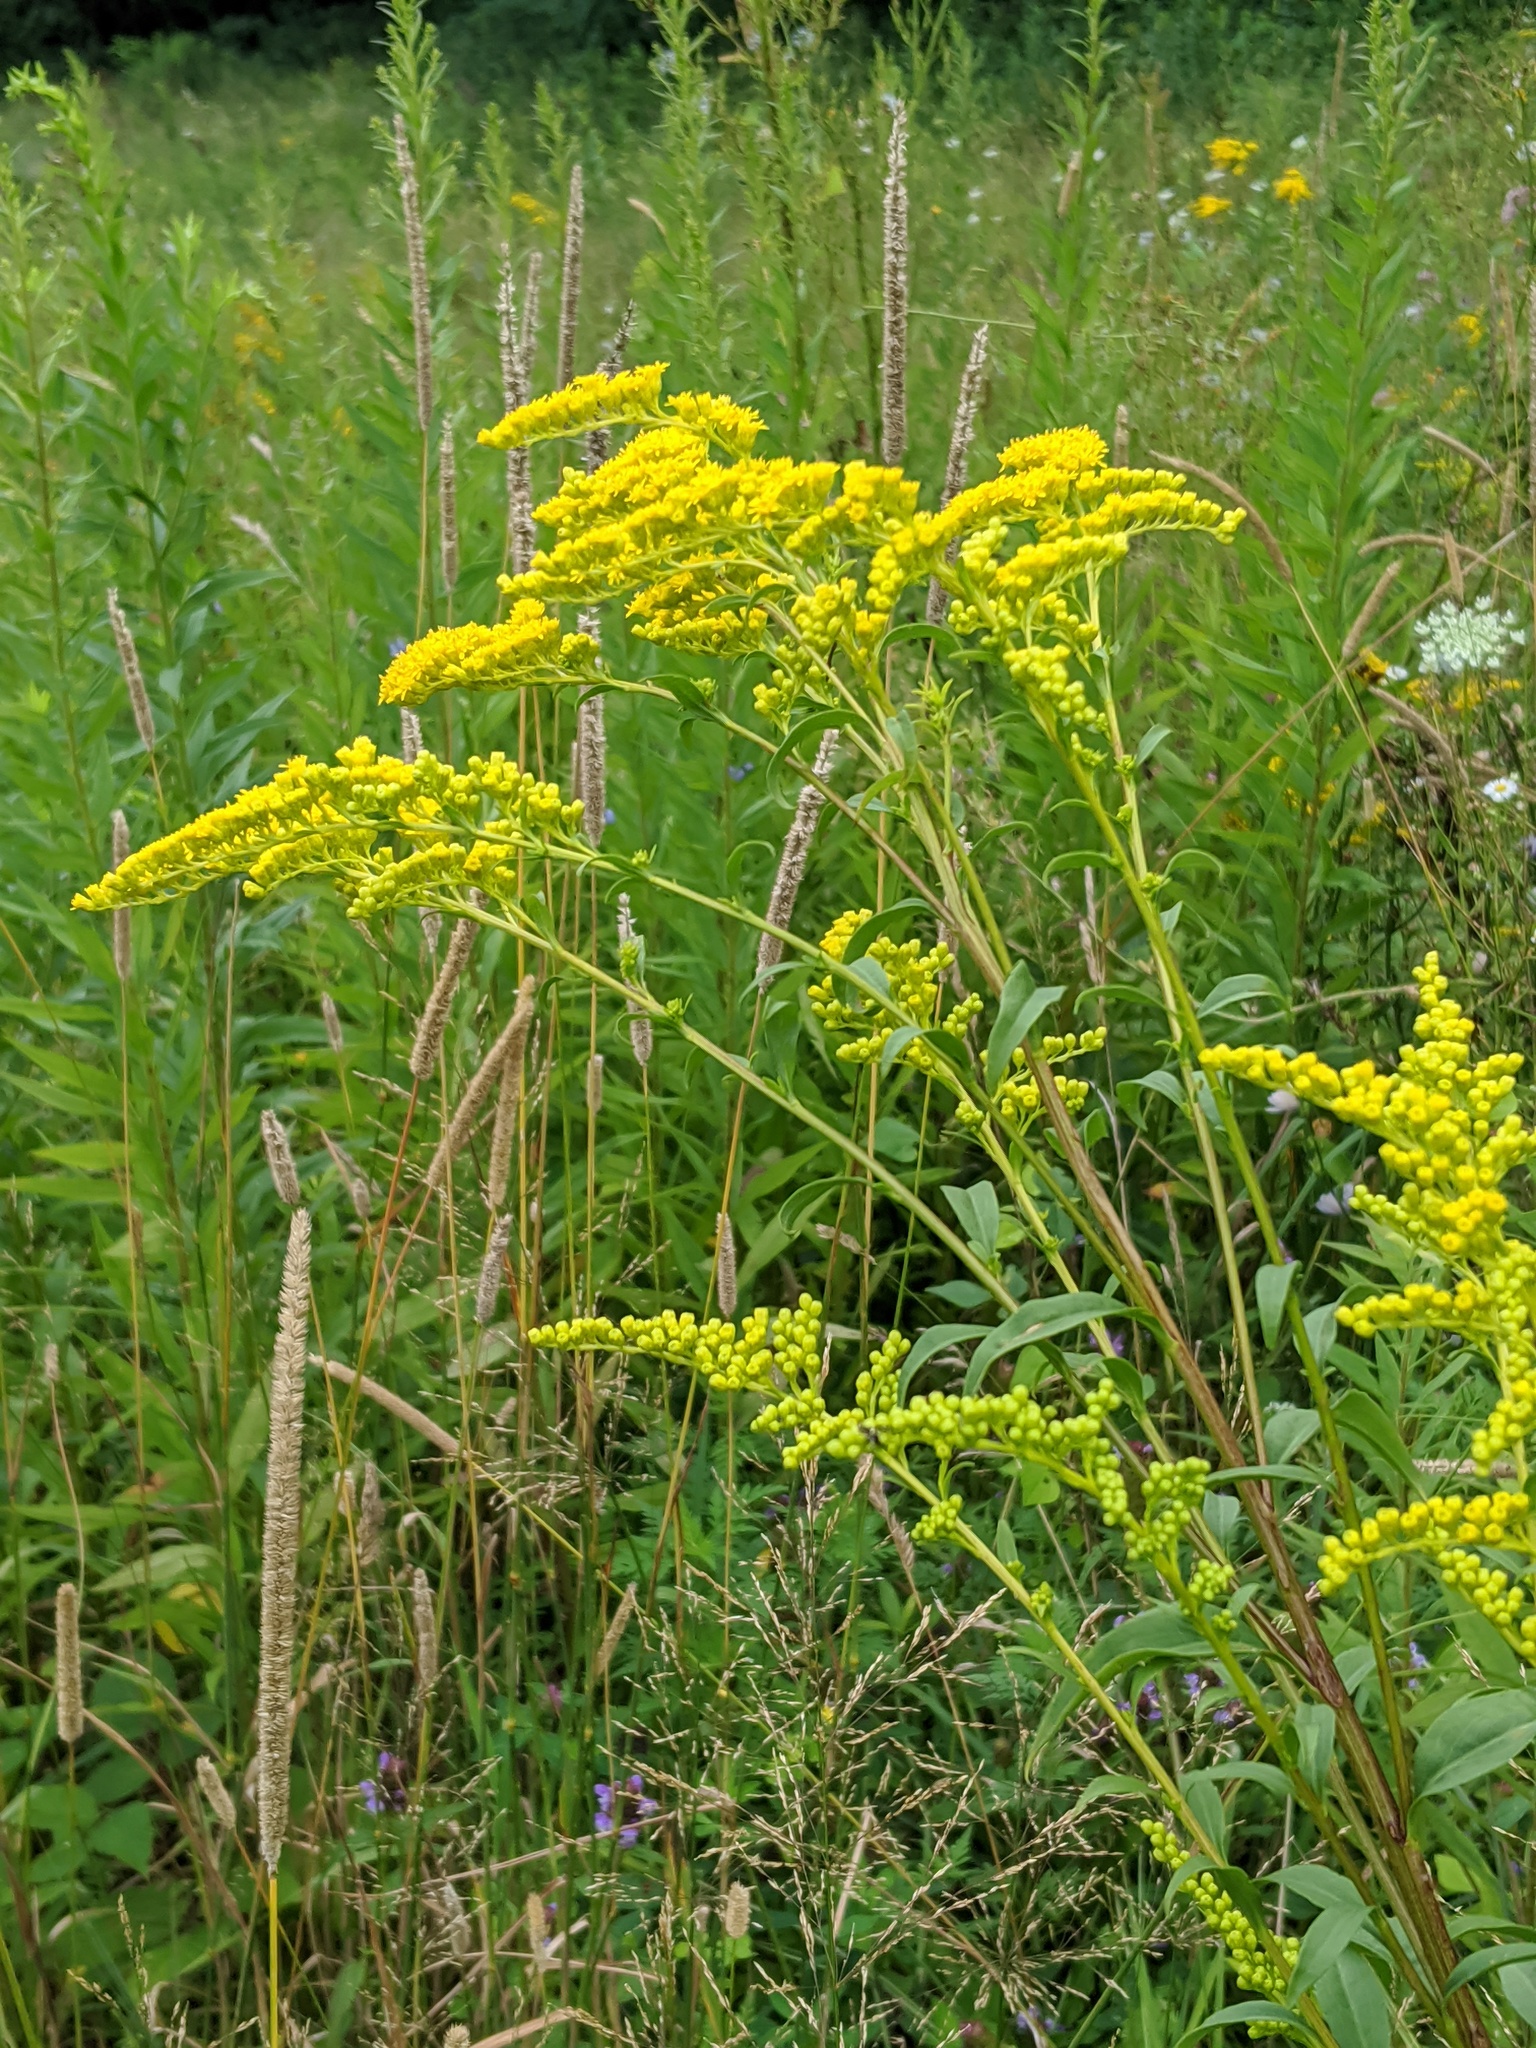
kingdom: Plantae
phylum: Tracheophyta
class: Magnoliopsida
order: Asterales
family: Asteraceae
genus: Solidago
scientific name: Solidago juncea
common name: Early goldenrod
